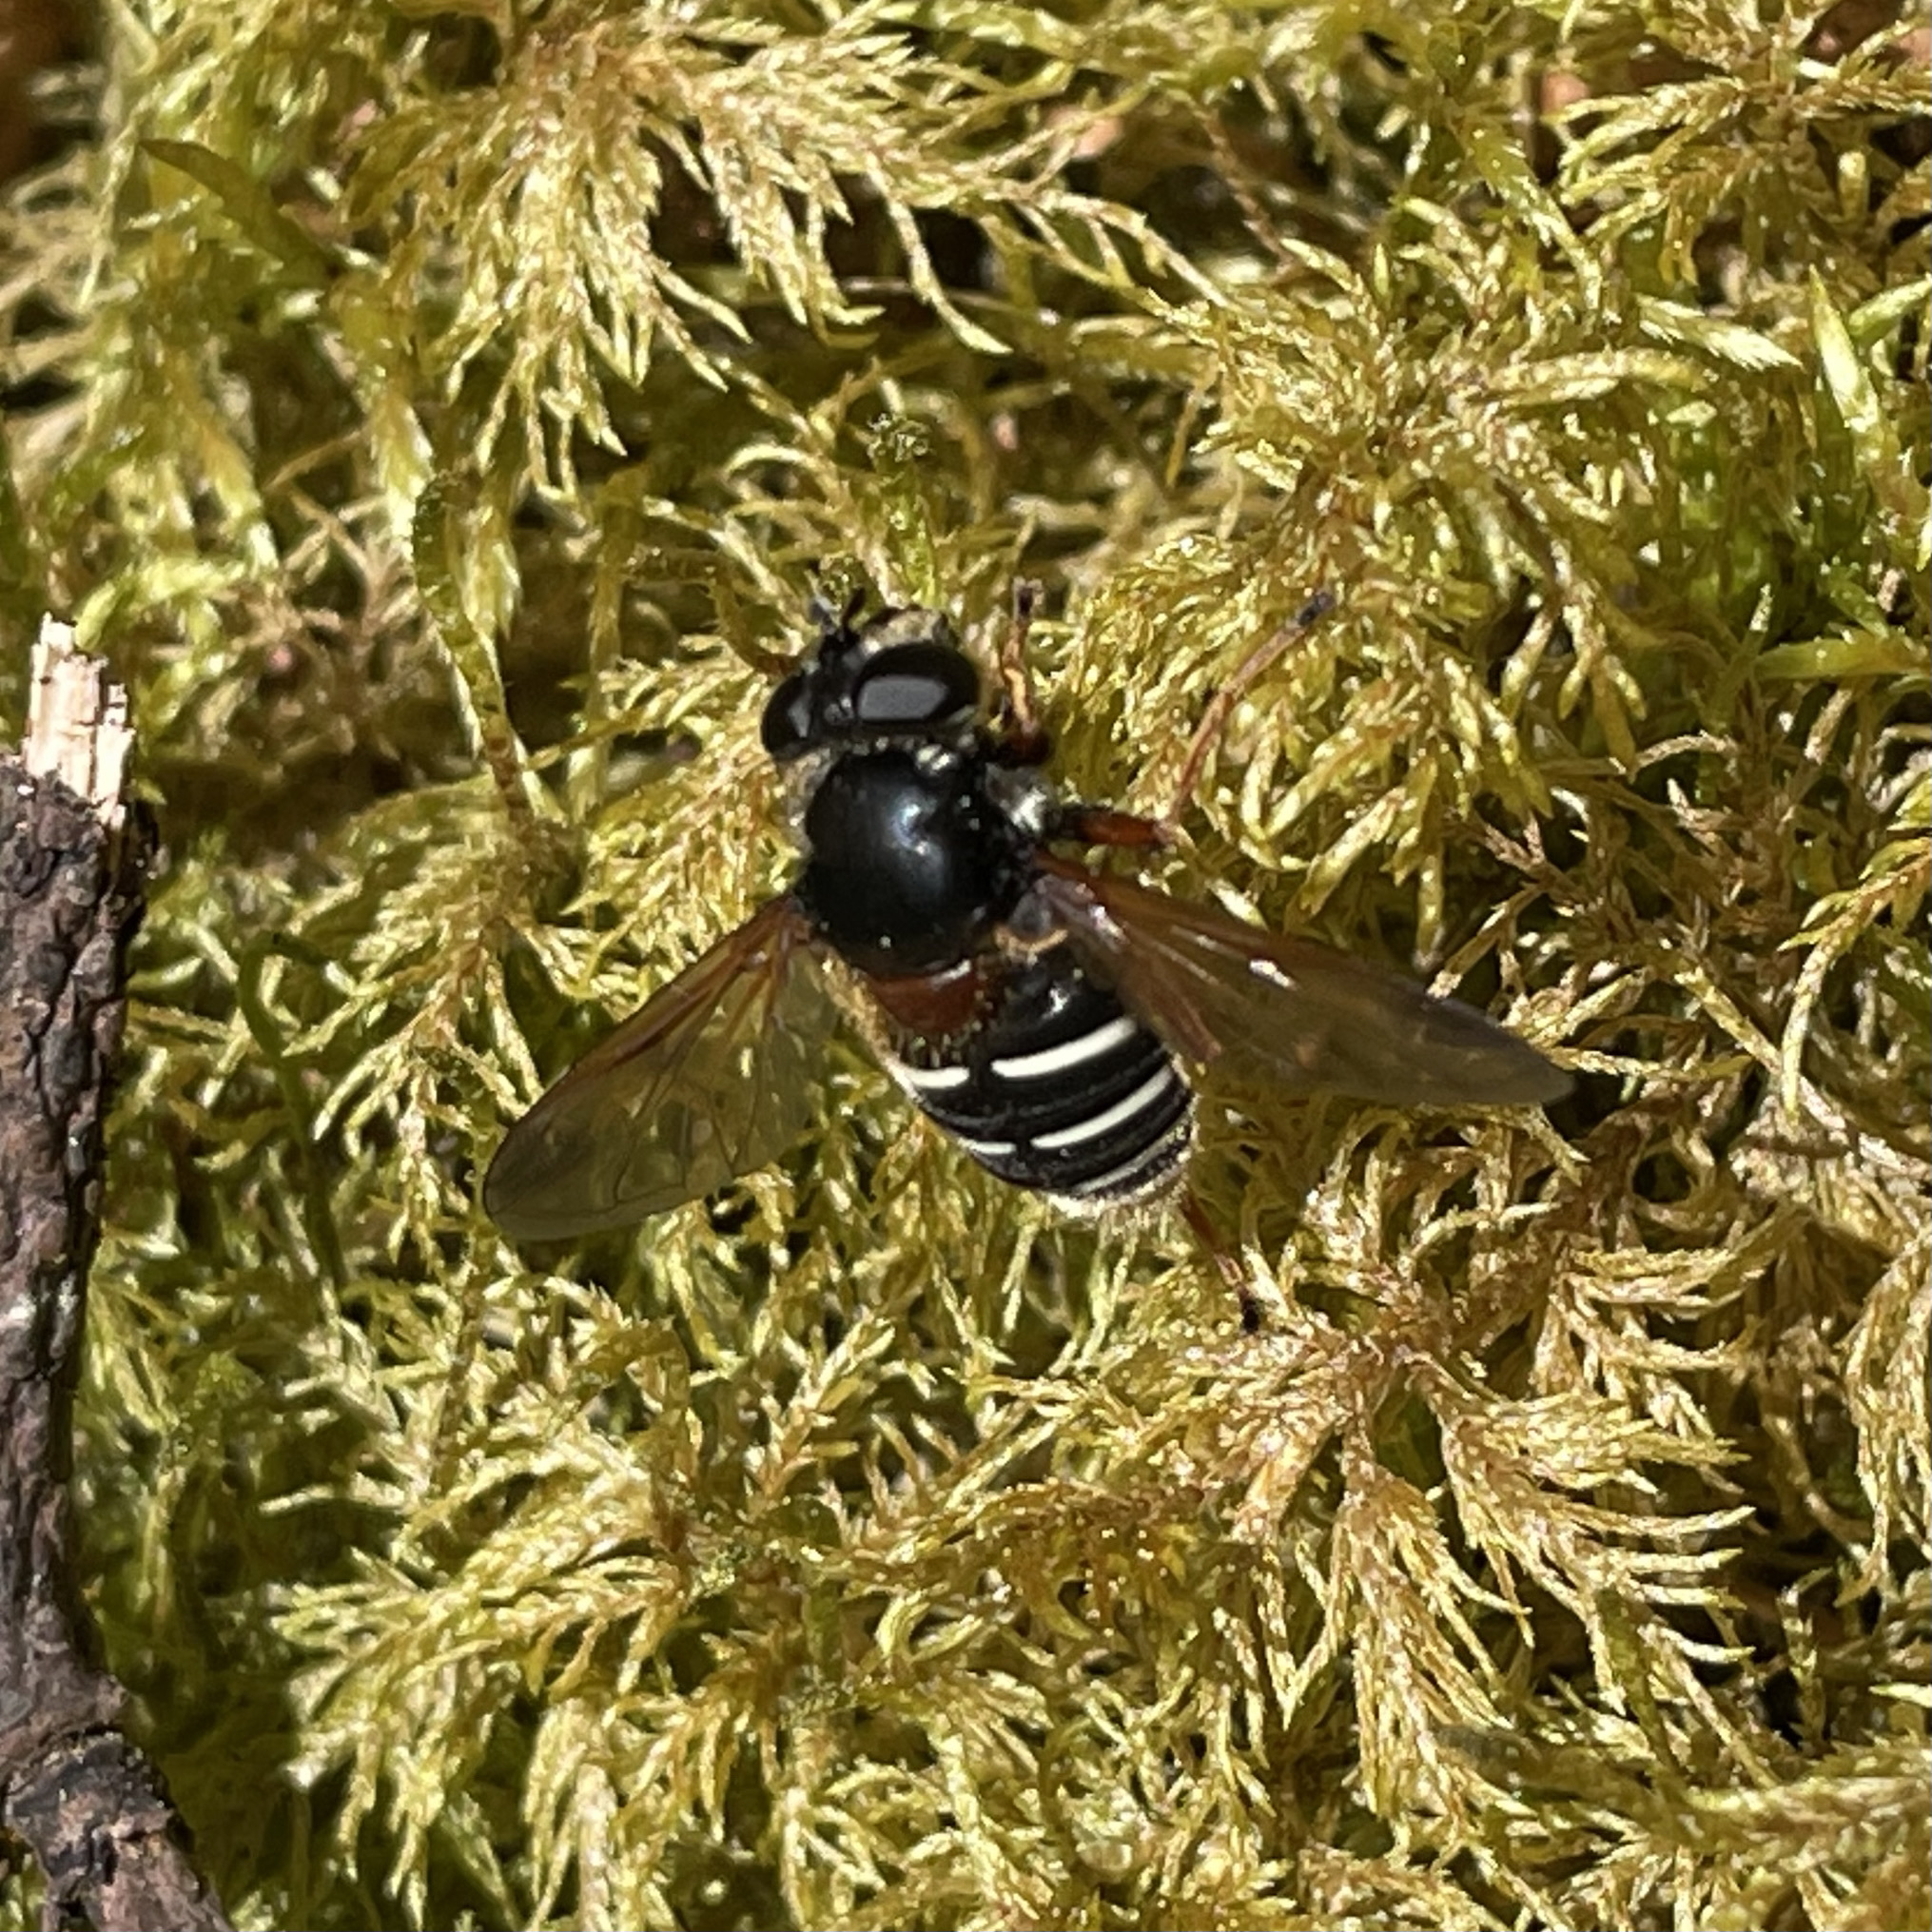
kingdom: Animalia
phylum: Arthropoda
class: Insecta
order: Diptera
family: Syrphidae
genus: Sericomyia
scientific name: Sericomyia lappona
